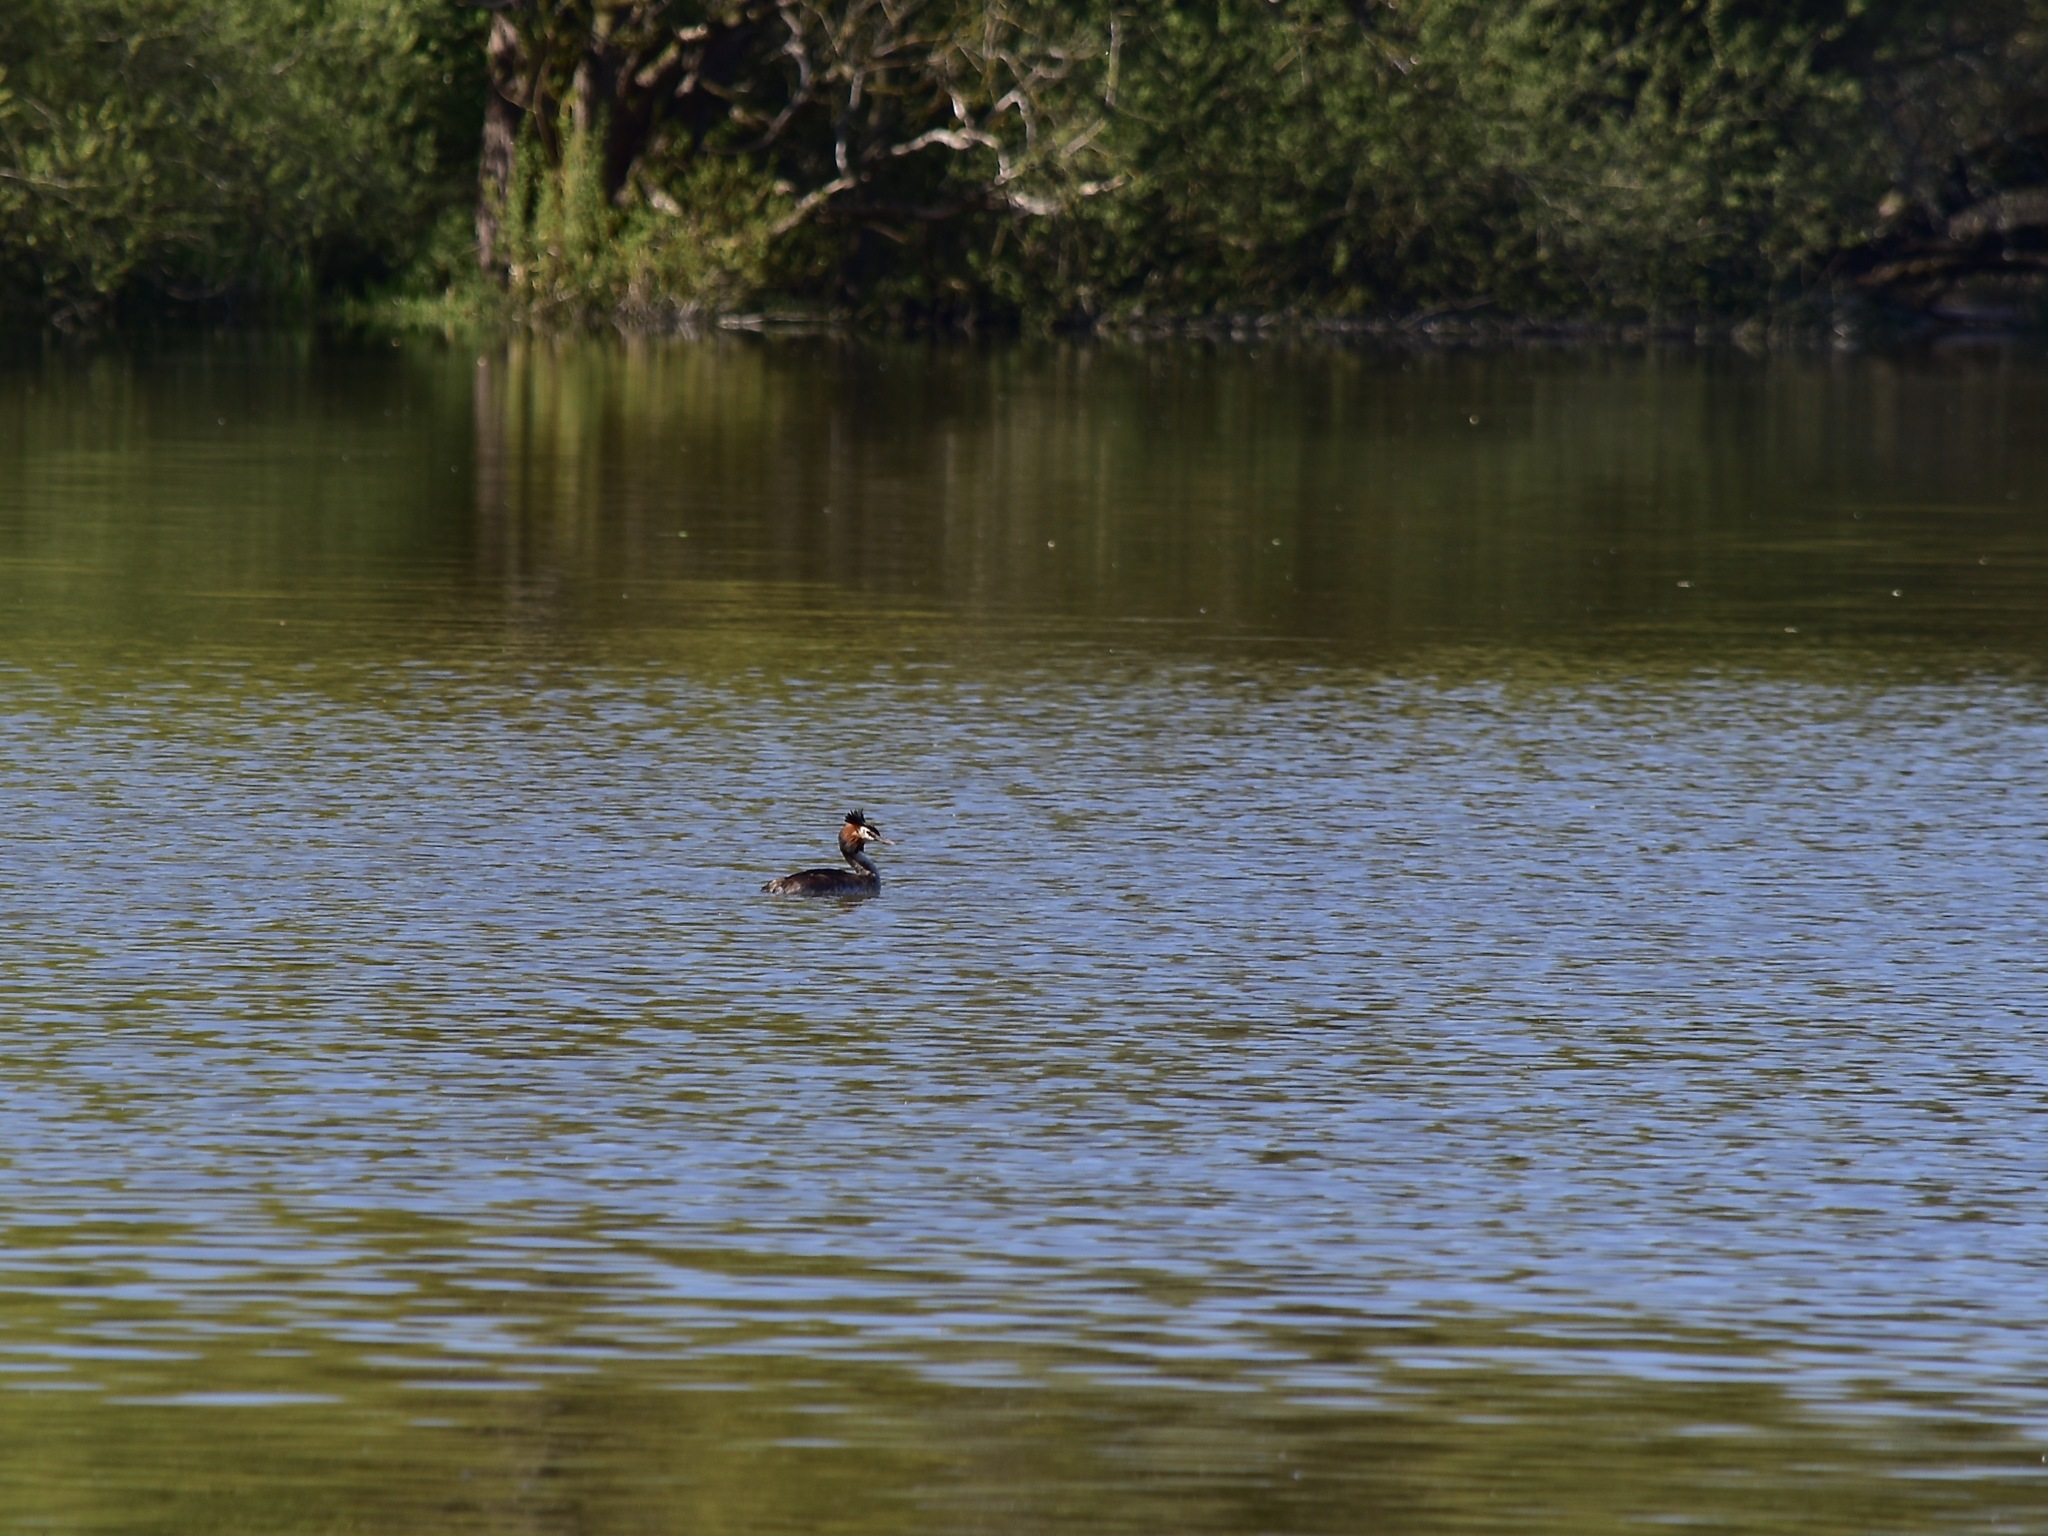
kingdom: Animalia
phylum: Chordata
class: Aves
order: Podicipediformes
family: Podicipedidae
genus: Podiceps
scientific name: Podiceps cristatus
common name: Great crested grebe
